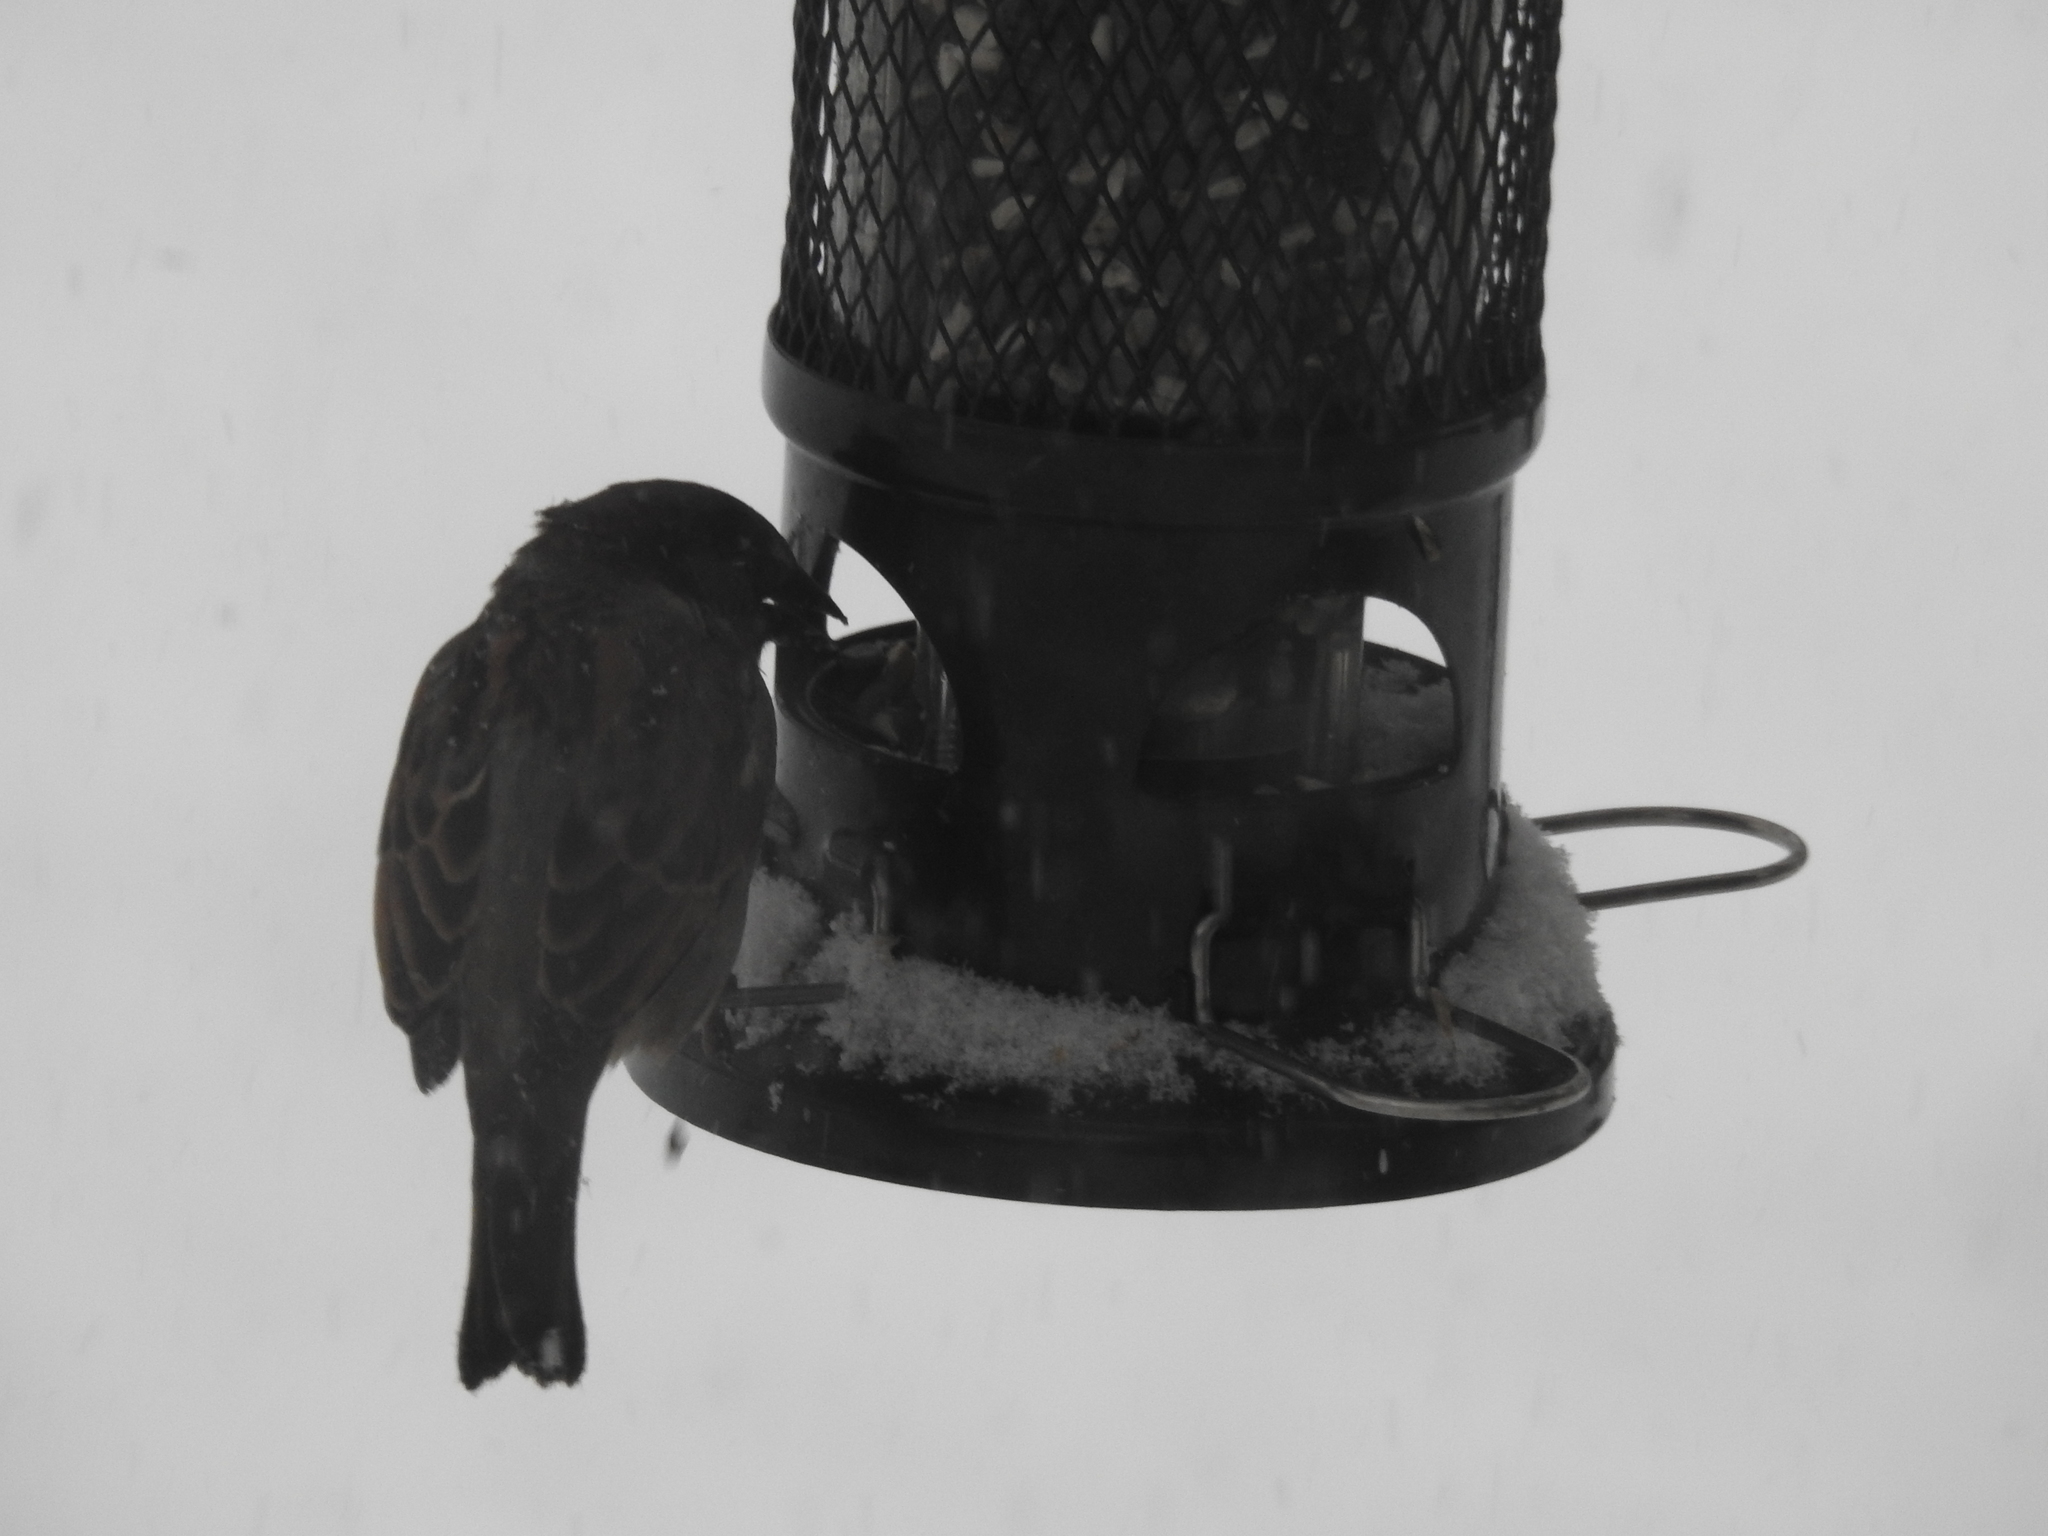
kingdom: Animalia
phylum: Chordata
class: Aves
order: Passeriformes
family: Passeridae
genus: Passer
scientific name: Passer domesticus
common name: House sparrow
